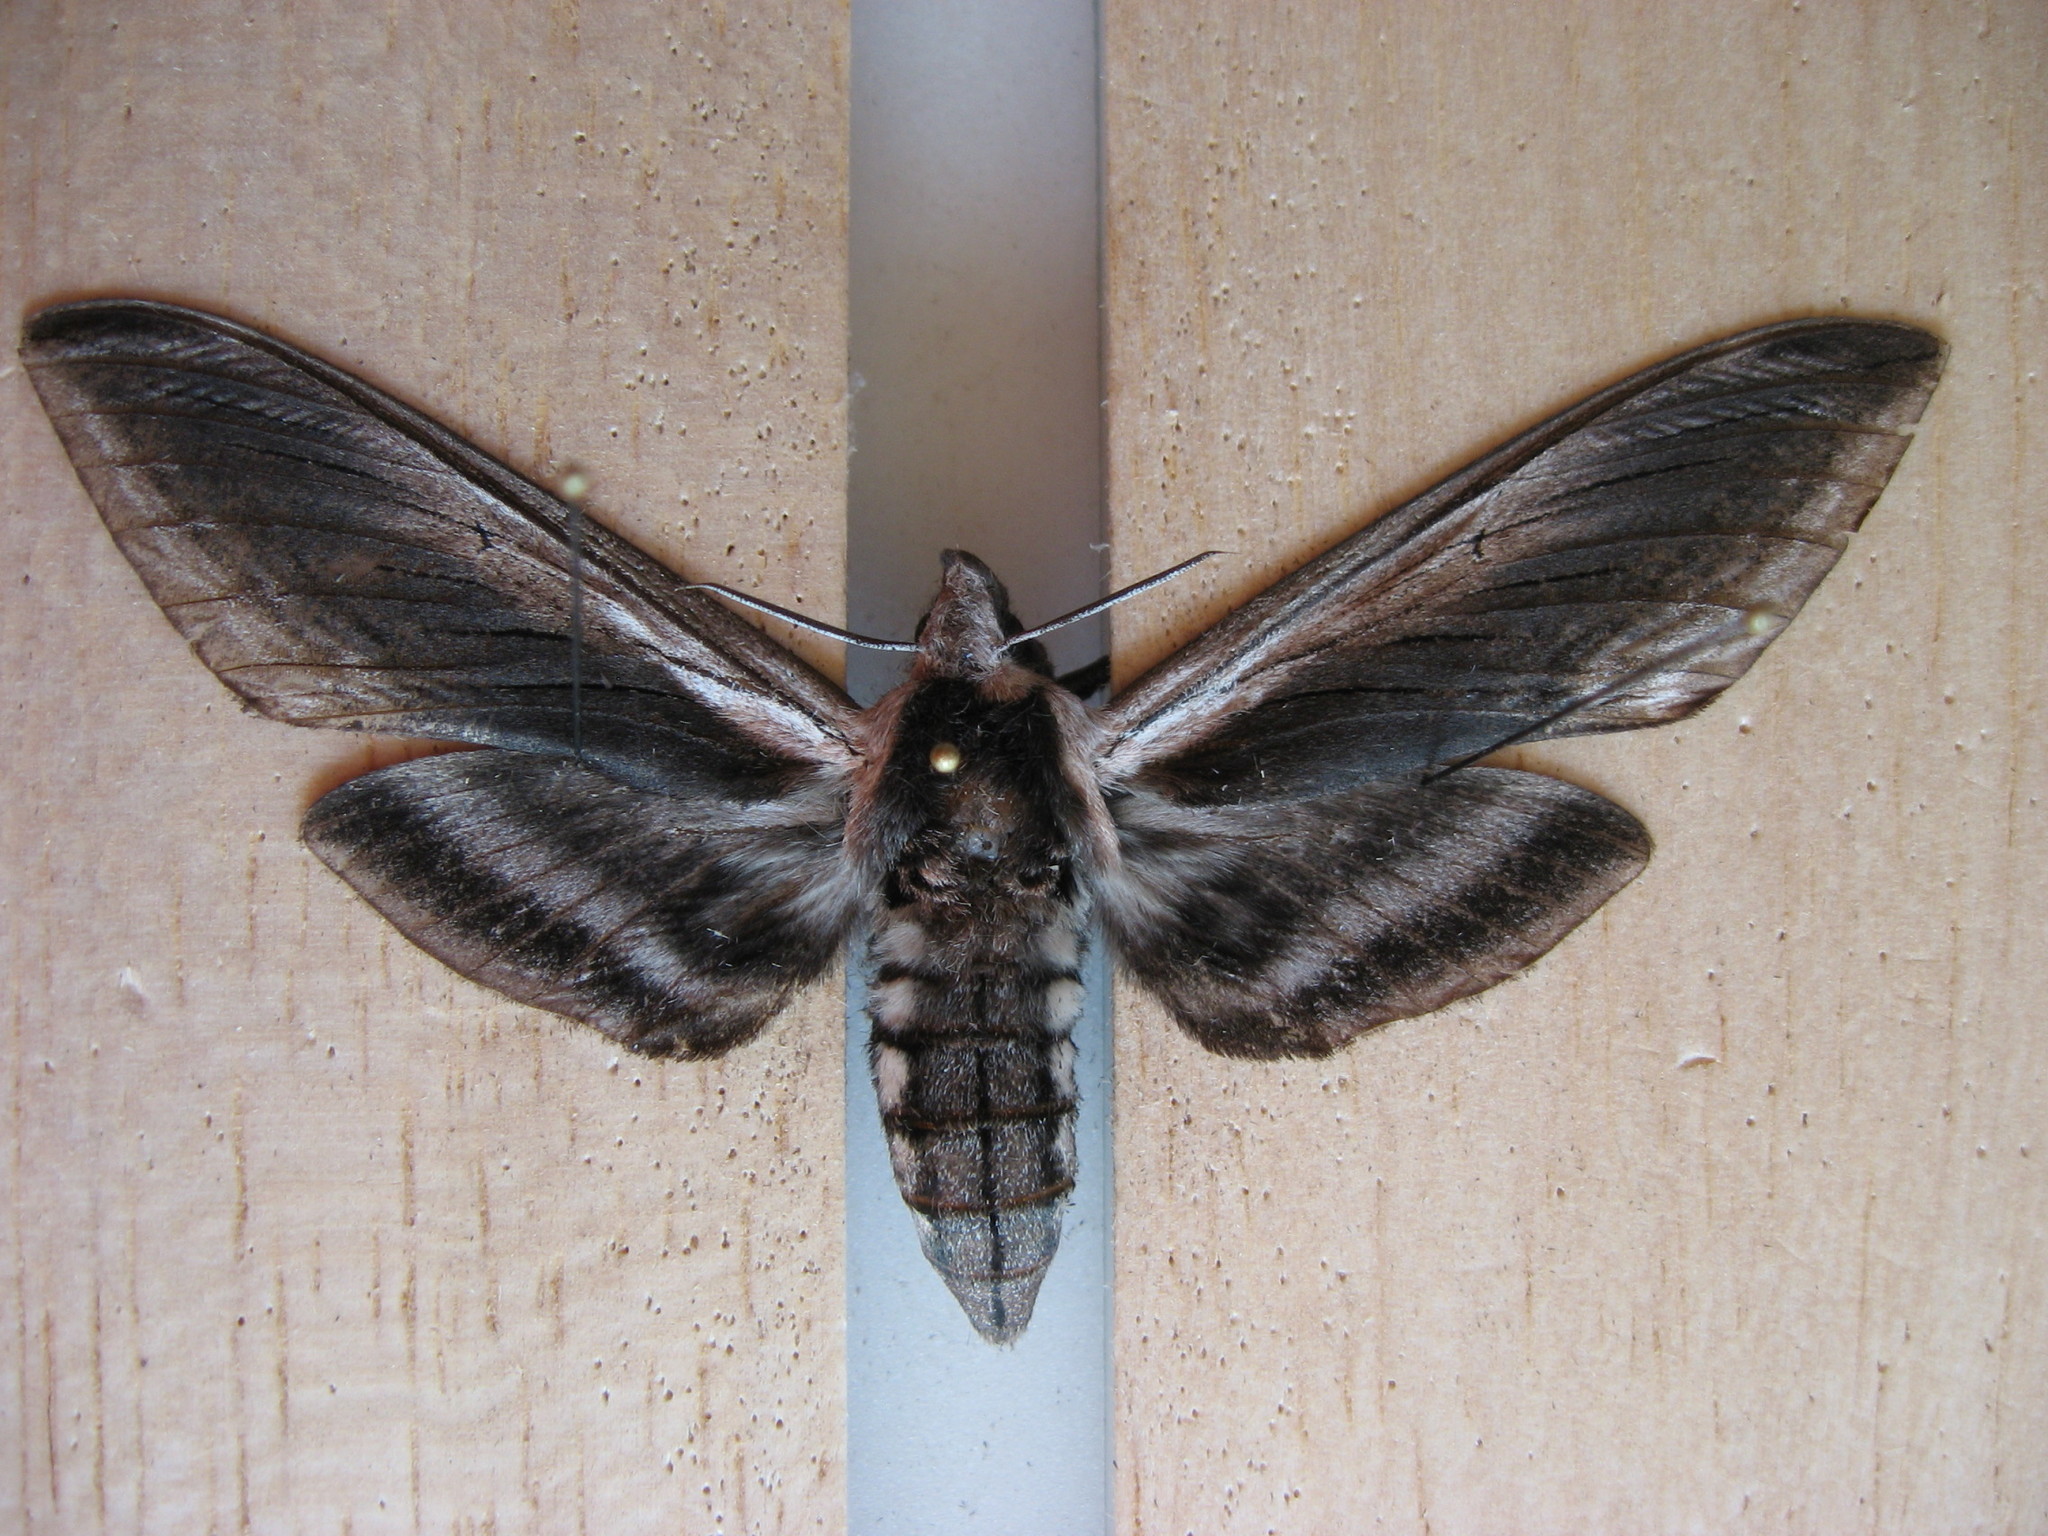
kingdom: Animalia
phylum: Arthropoda
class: Insecta
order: Lepidoptera
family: Sphingidae
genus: Sphinx
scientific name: Sphinx drupiferarum
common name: Wild cherry sphinx
